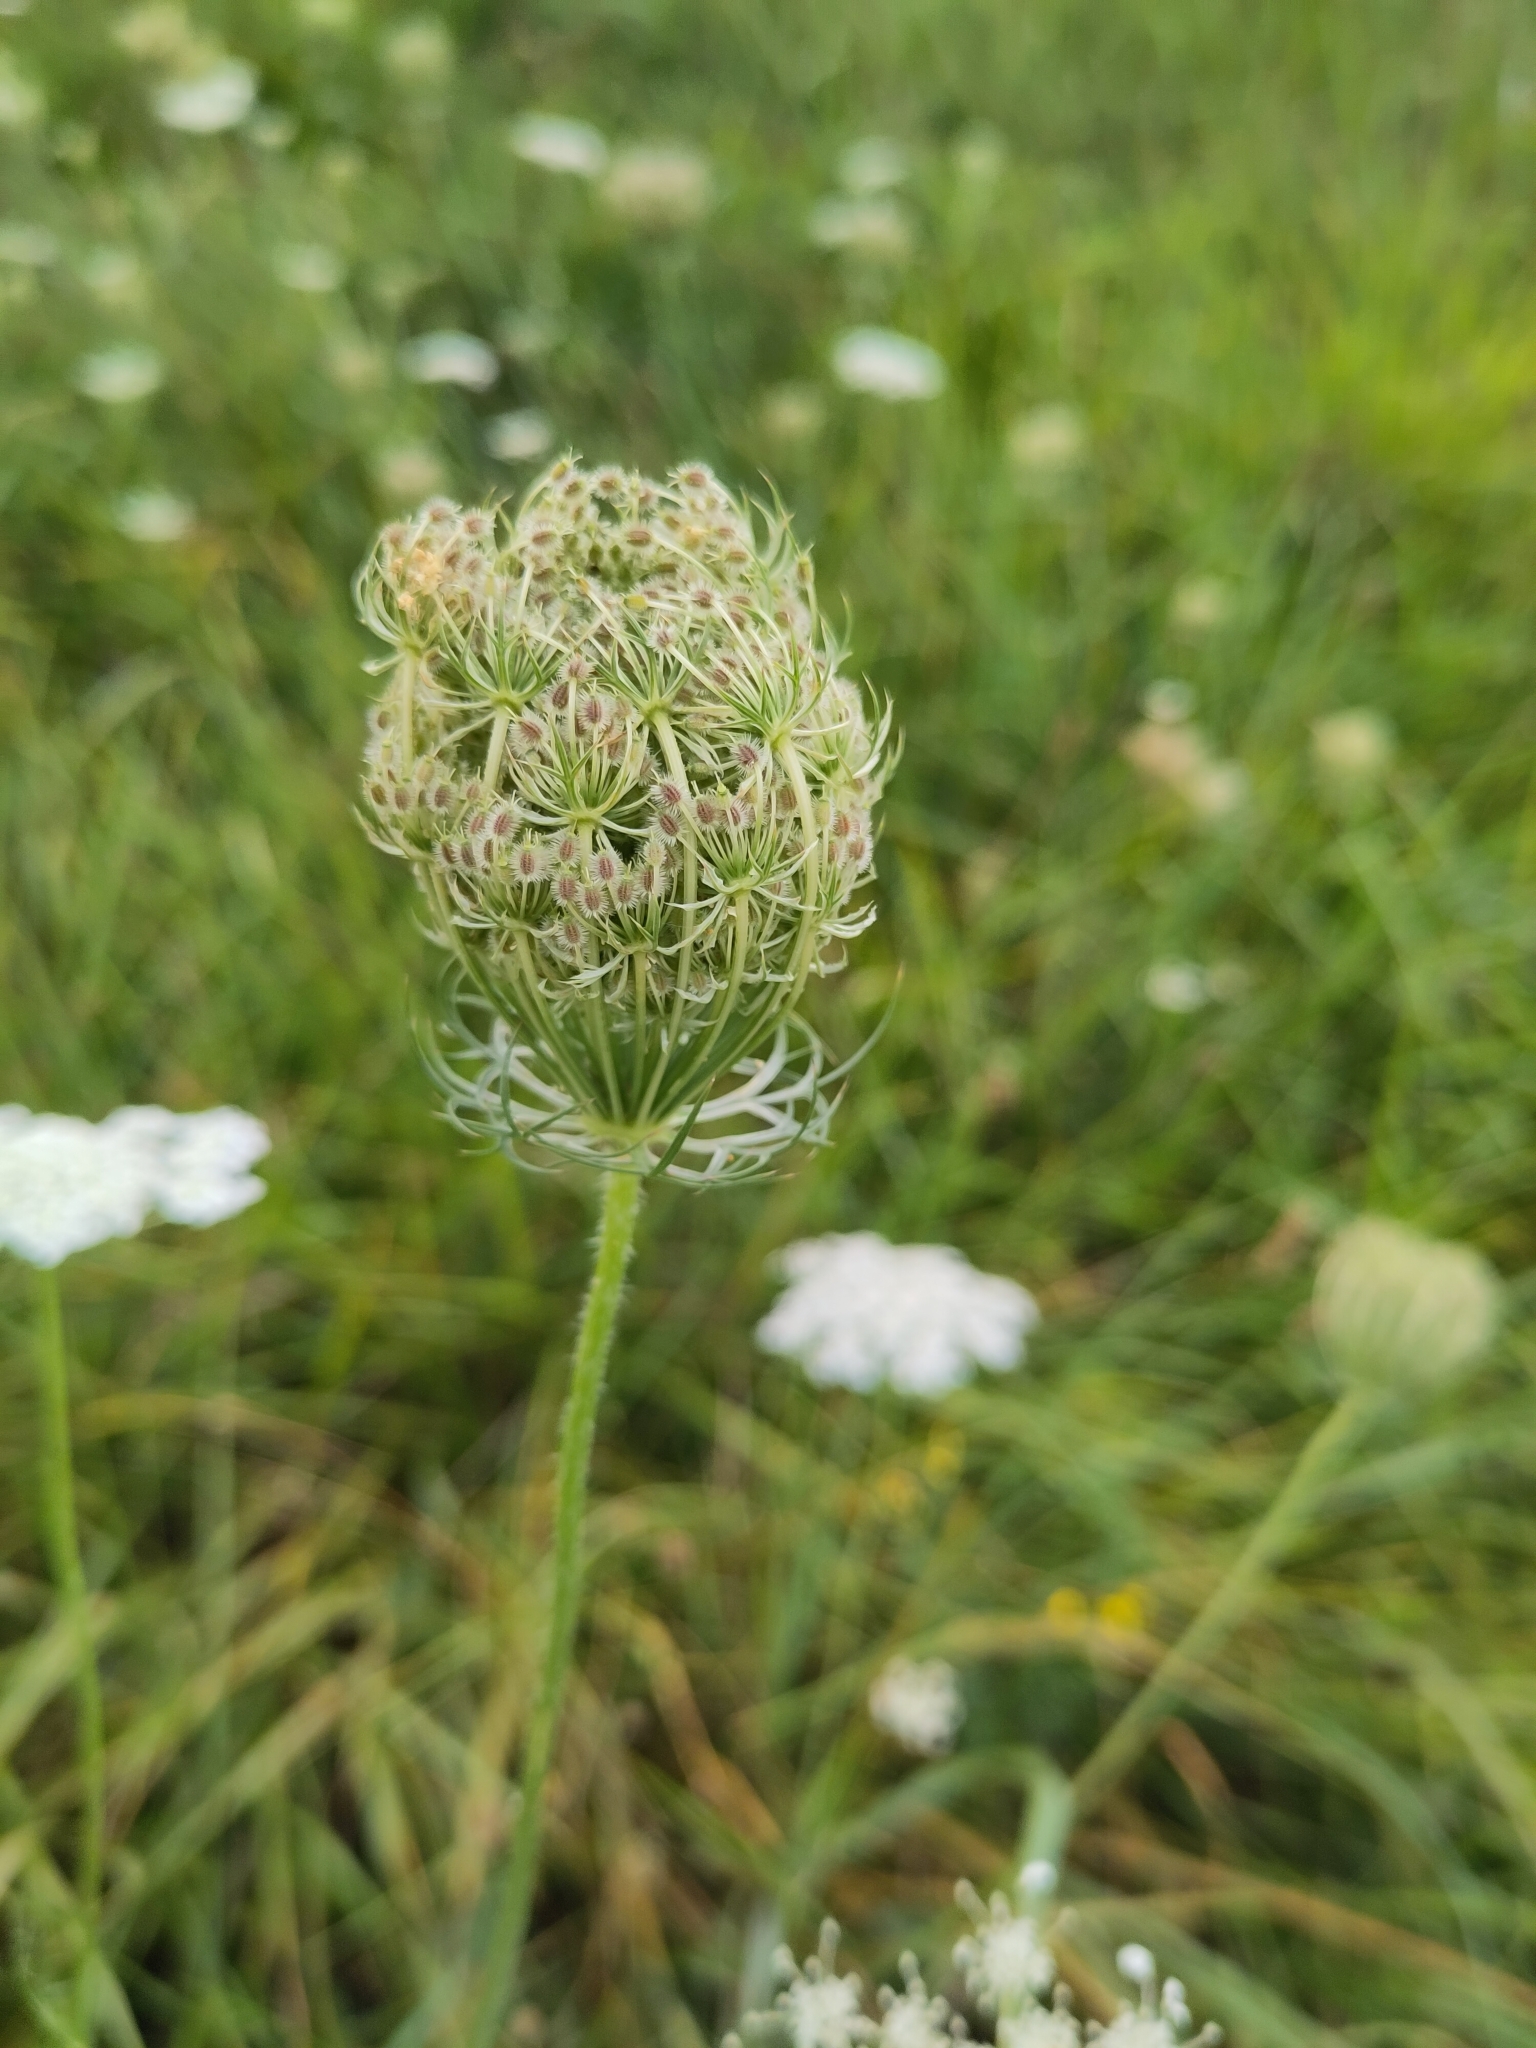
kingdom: Plantae
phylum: Tracheophyta
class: Magnoliopsida
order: Apiales
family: Apiaceae
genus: Daucus
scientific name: Daucus carota
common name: Wild carrot
